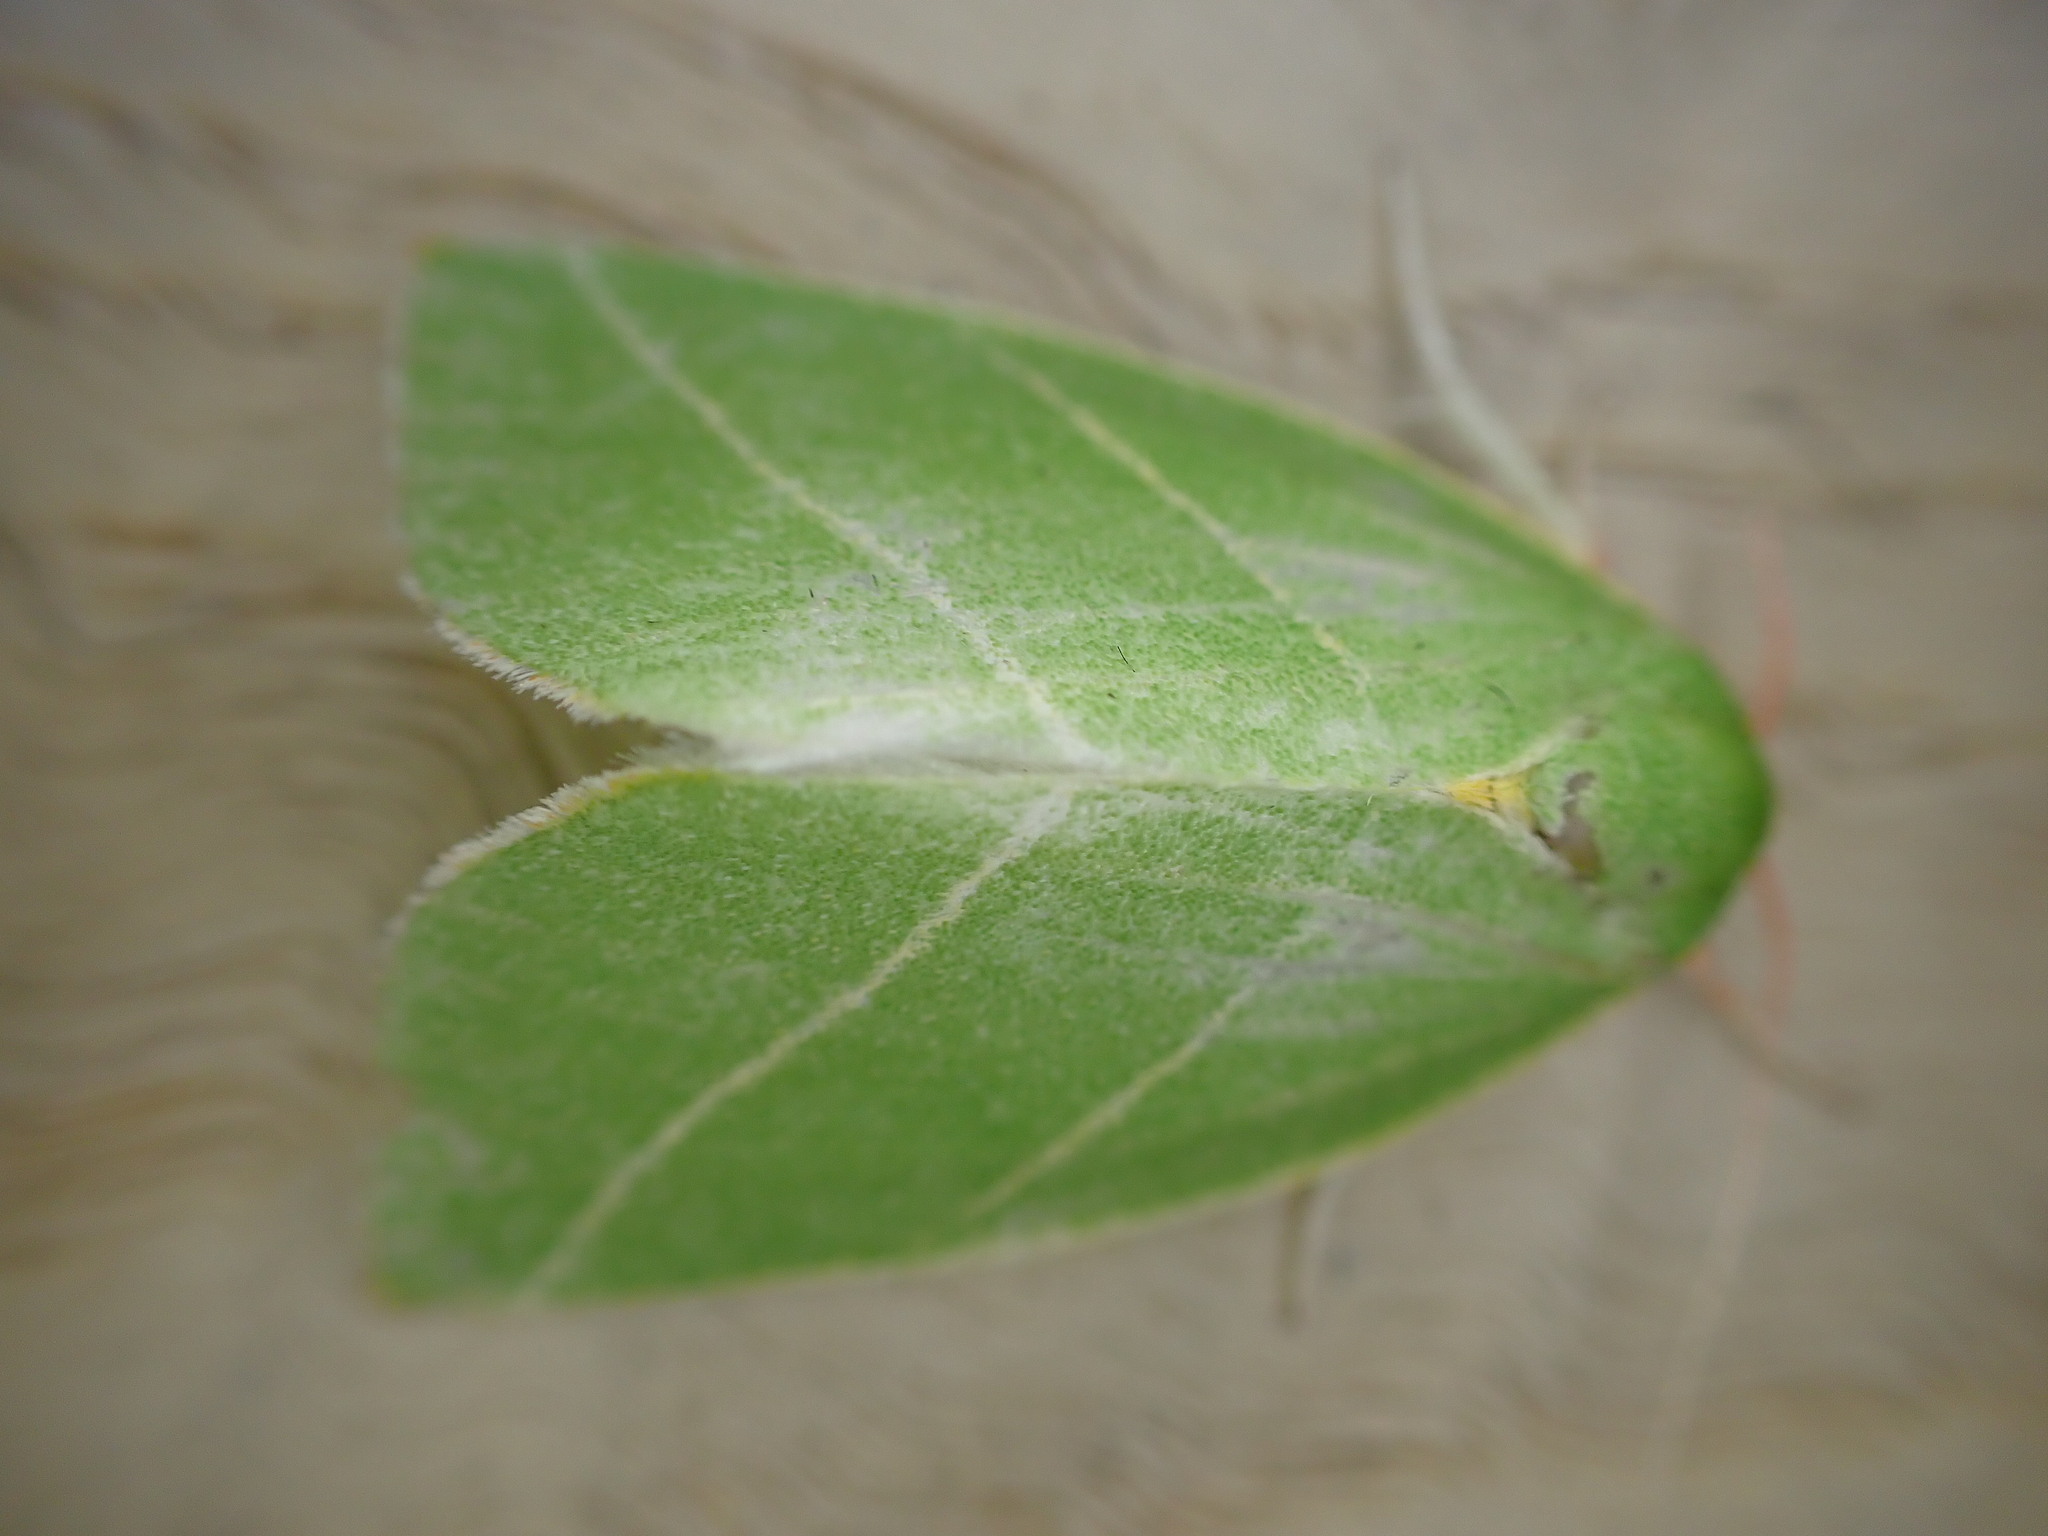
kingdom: Animalia
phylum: Arthropoda
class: Insecta
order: Lepidoptera
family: Nolidae
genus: Bena
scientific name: Bena bicolorana
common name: Scarce silver-lines
